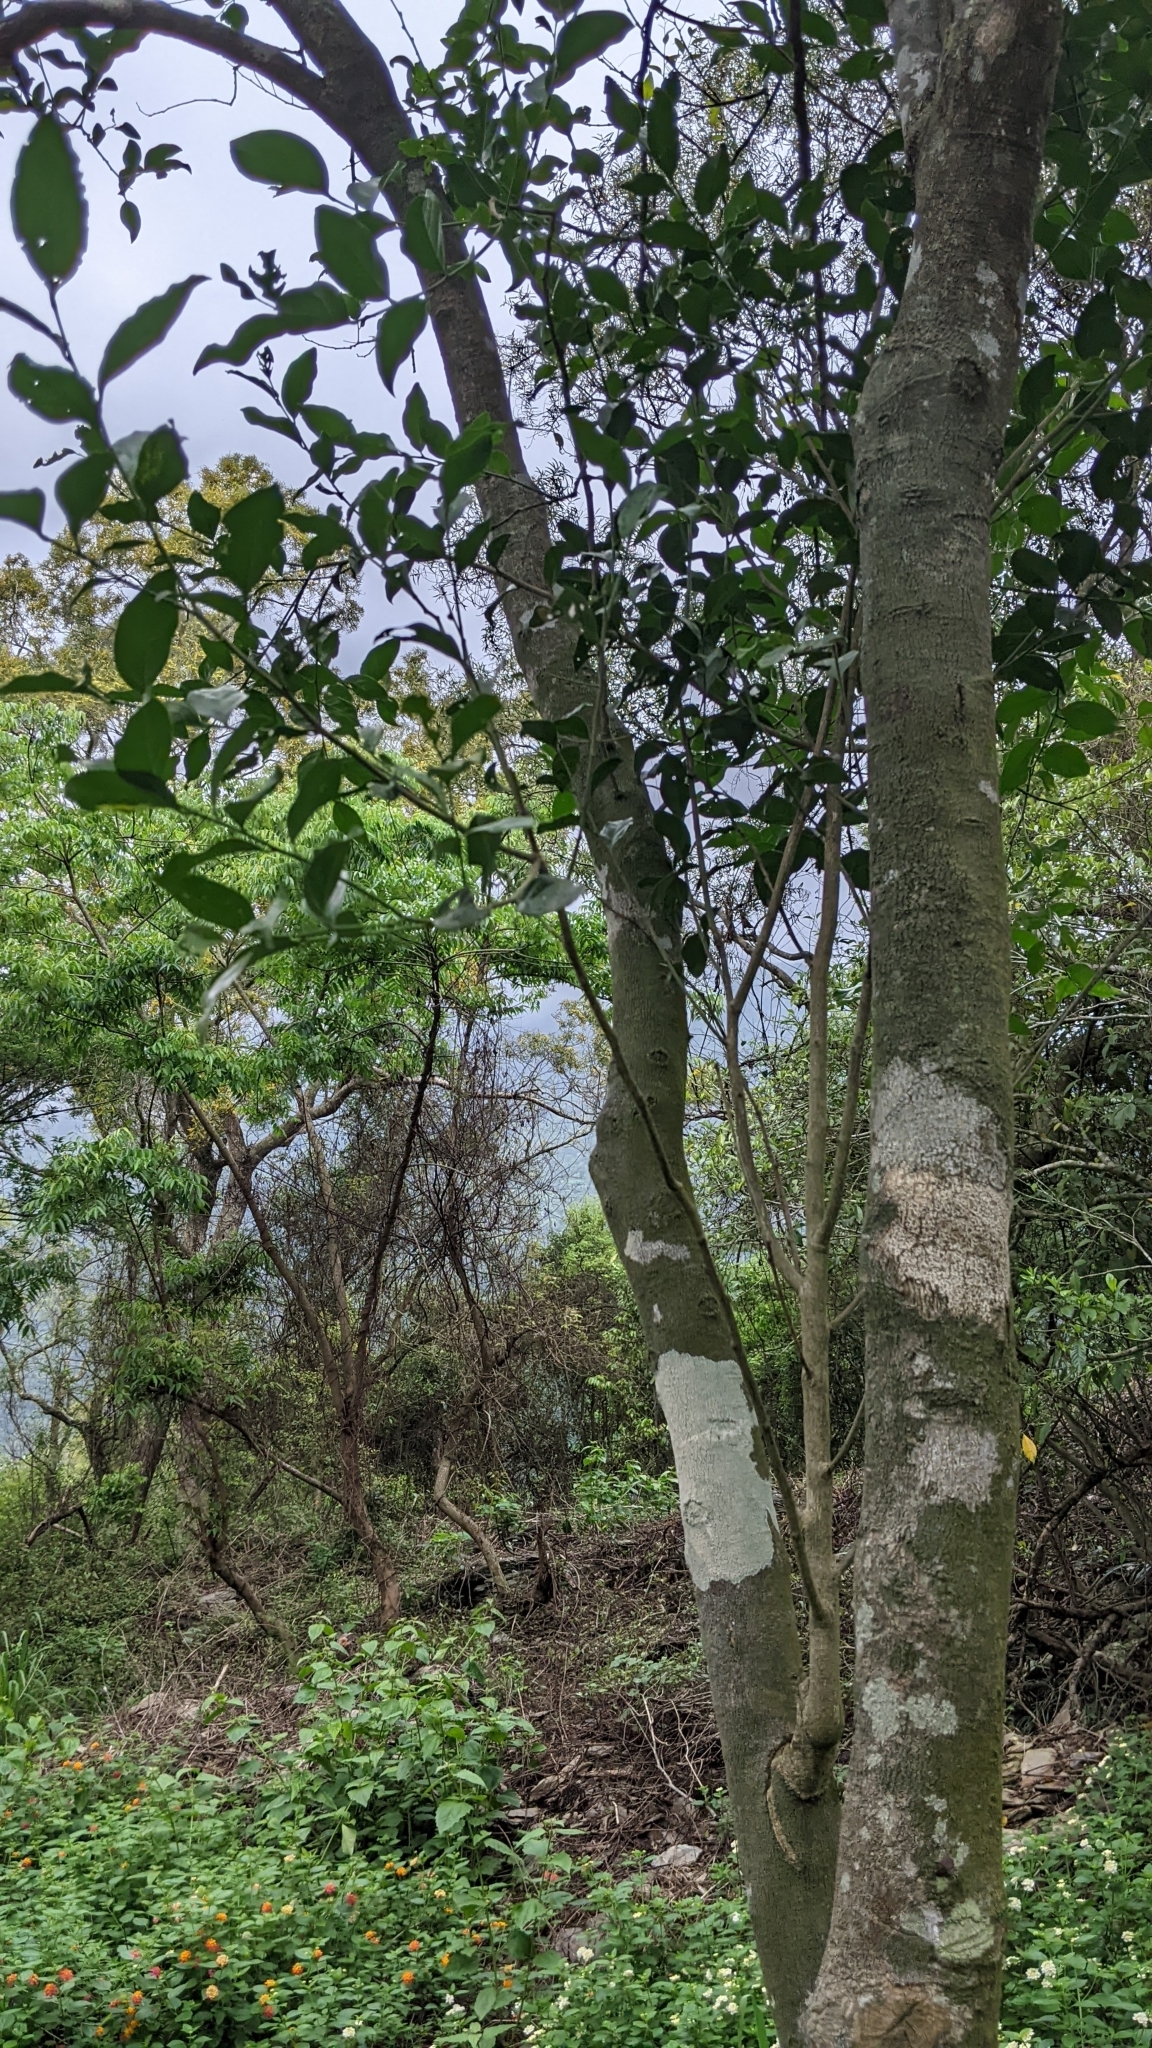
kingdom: Plantae
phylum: Tracheophyta
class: Magnoliopsida
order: Santalales
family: Opiliaceae
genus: Champereia
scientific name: Champereia manillana
